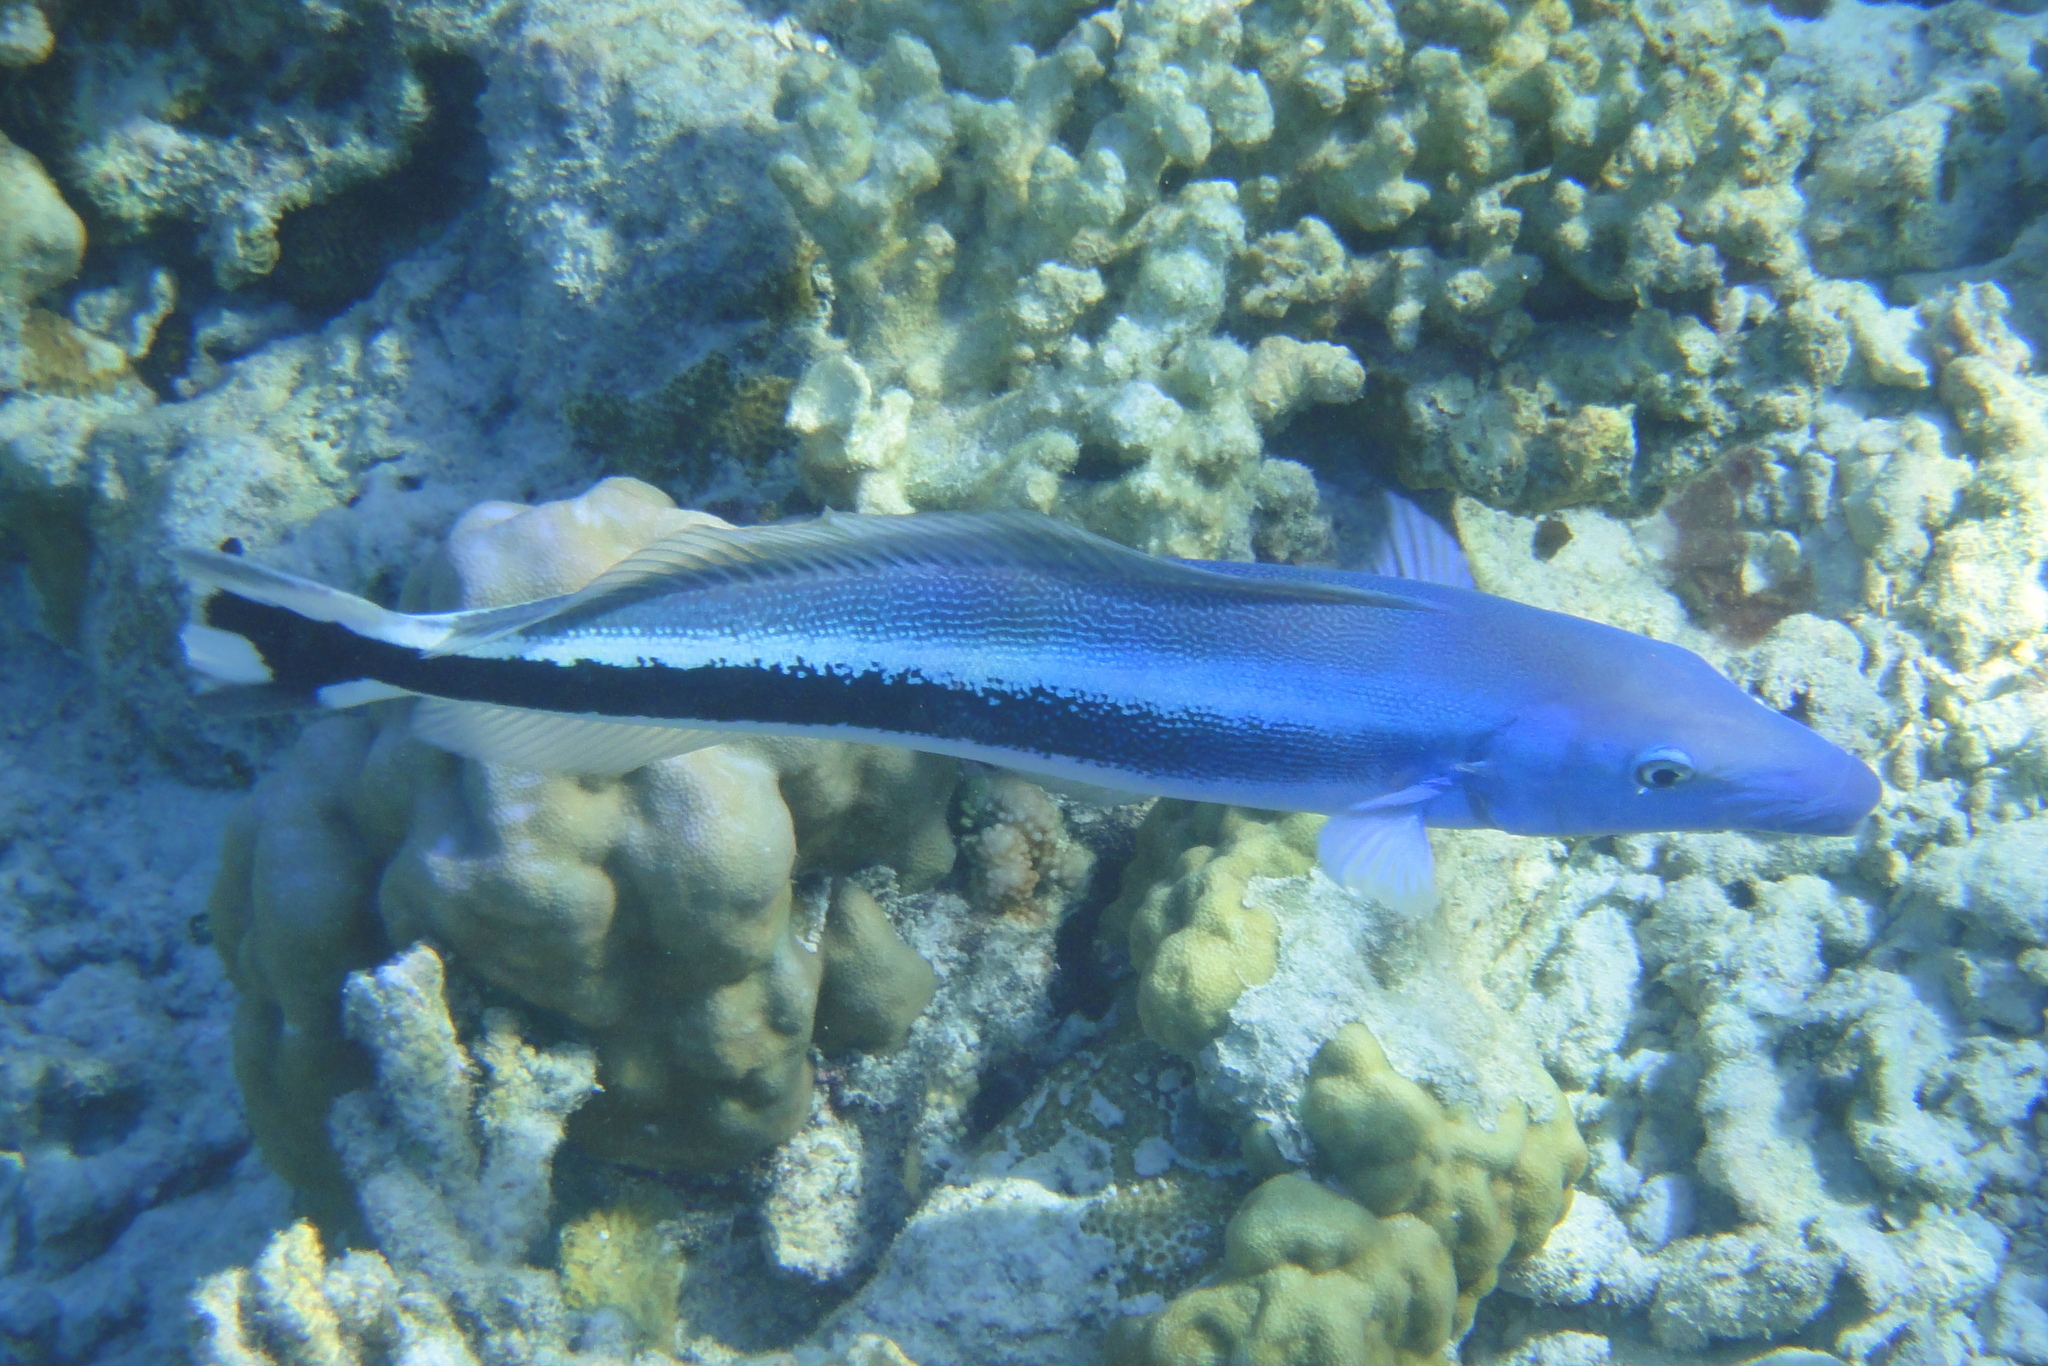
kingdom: Animalia
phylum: Chordata
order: Perciformes
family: Malacanthidae
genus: Malacanthus
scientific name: Malacanthus latovittatus
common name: Blue blanquillo
